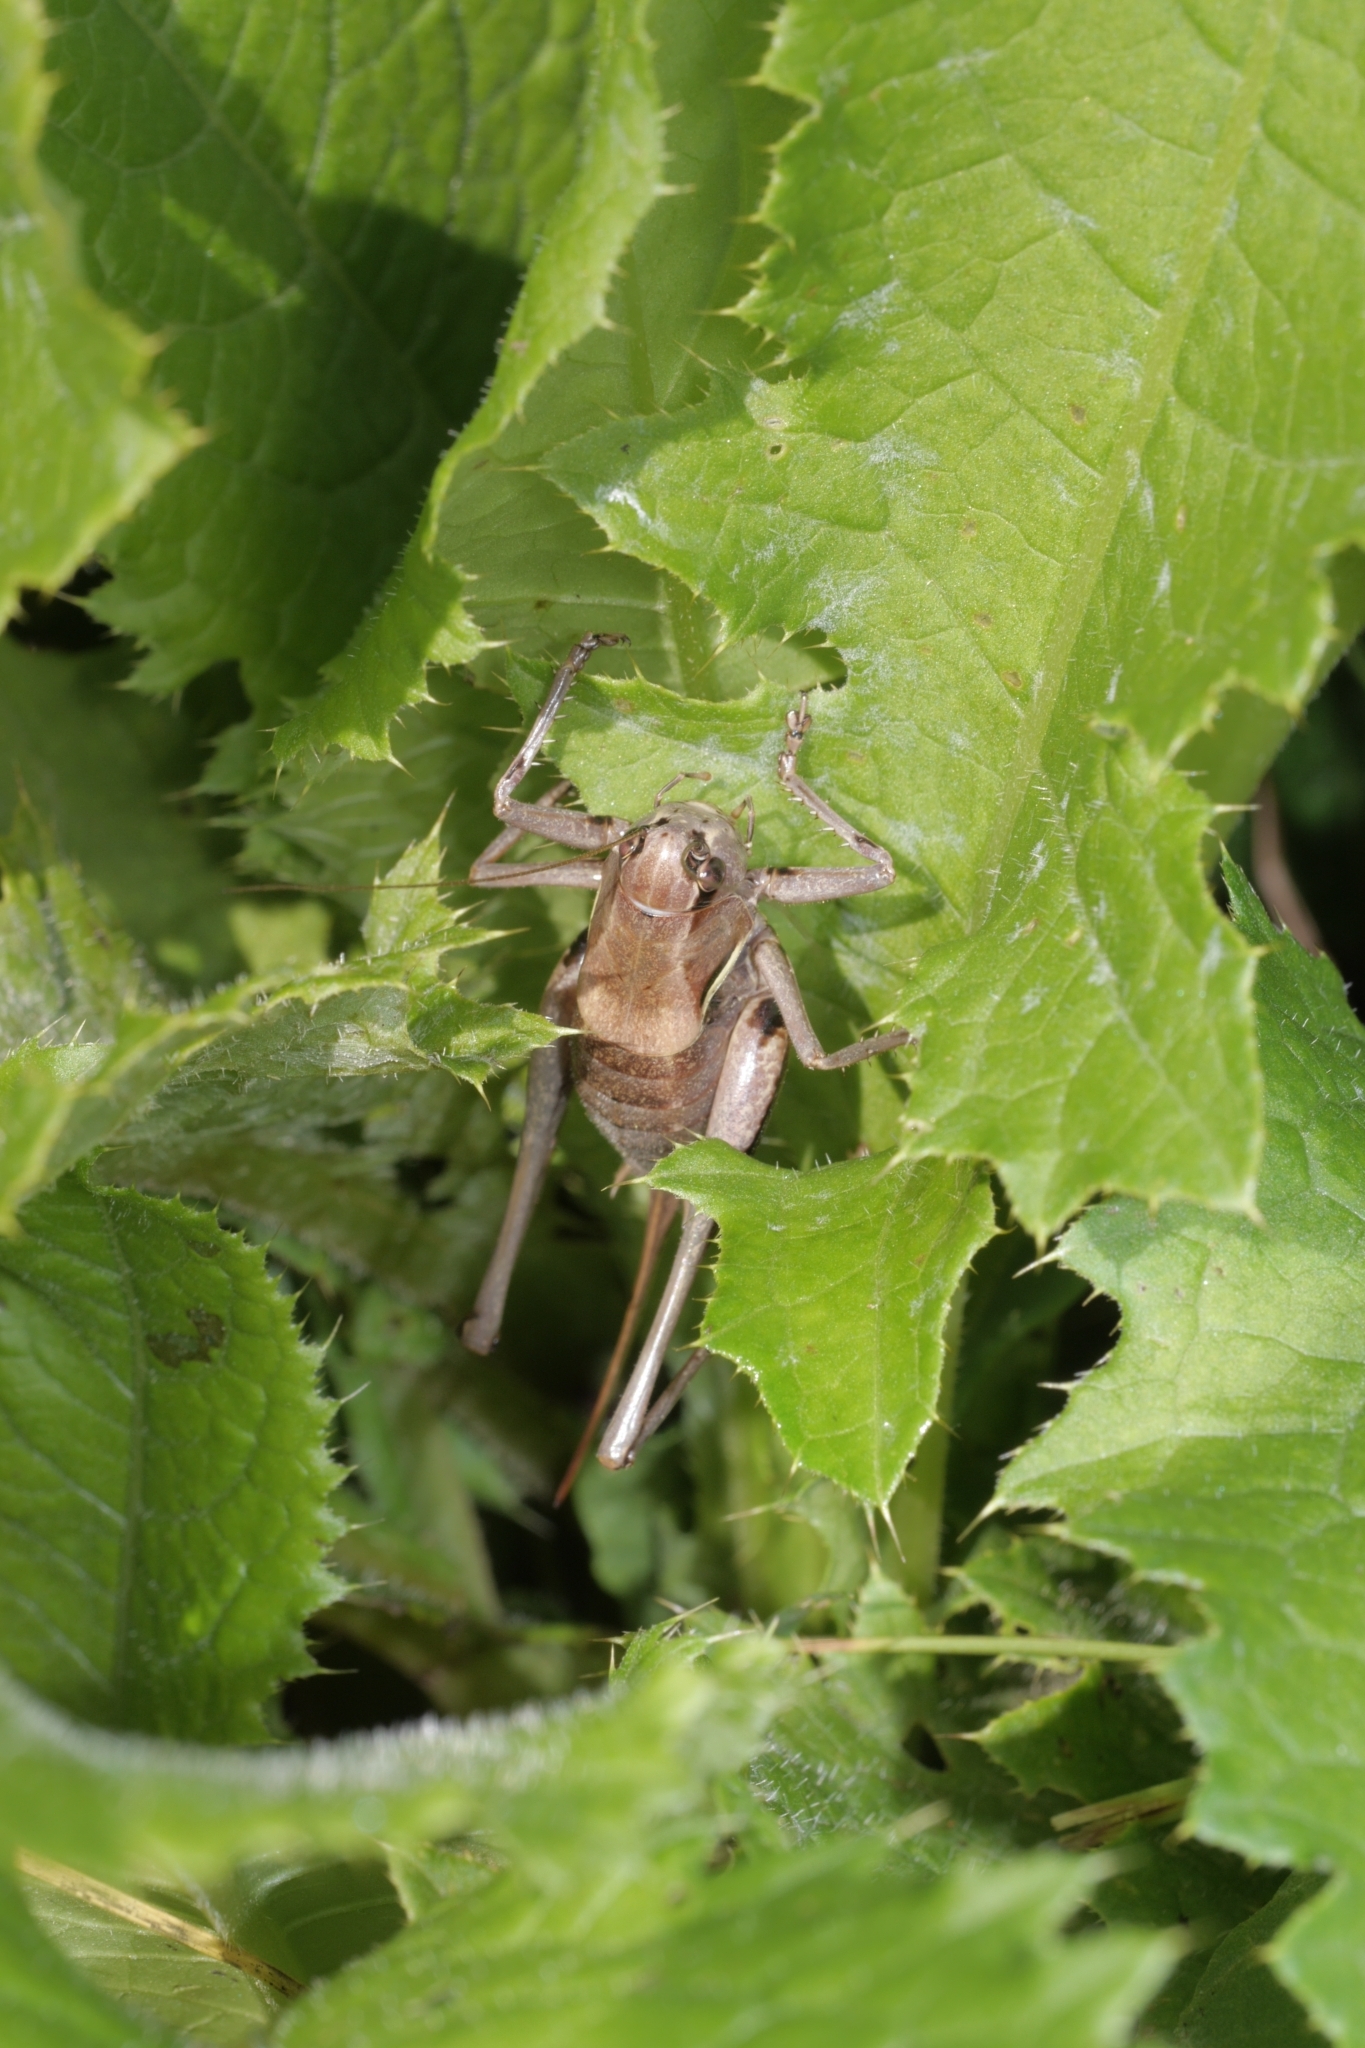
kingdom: Animalia
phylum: Arthropoda
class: Insecta
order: Orthoptera
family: Tettigoniidae
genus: Pholidoptera
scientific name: Pholidoptera aptera
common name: Alpine dark bush-cricket
